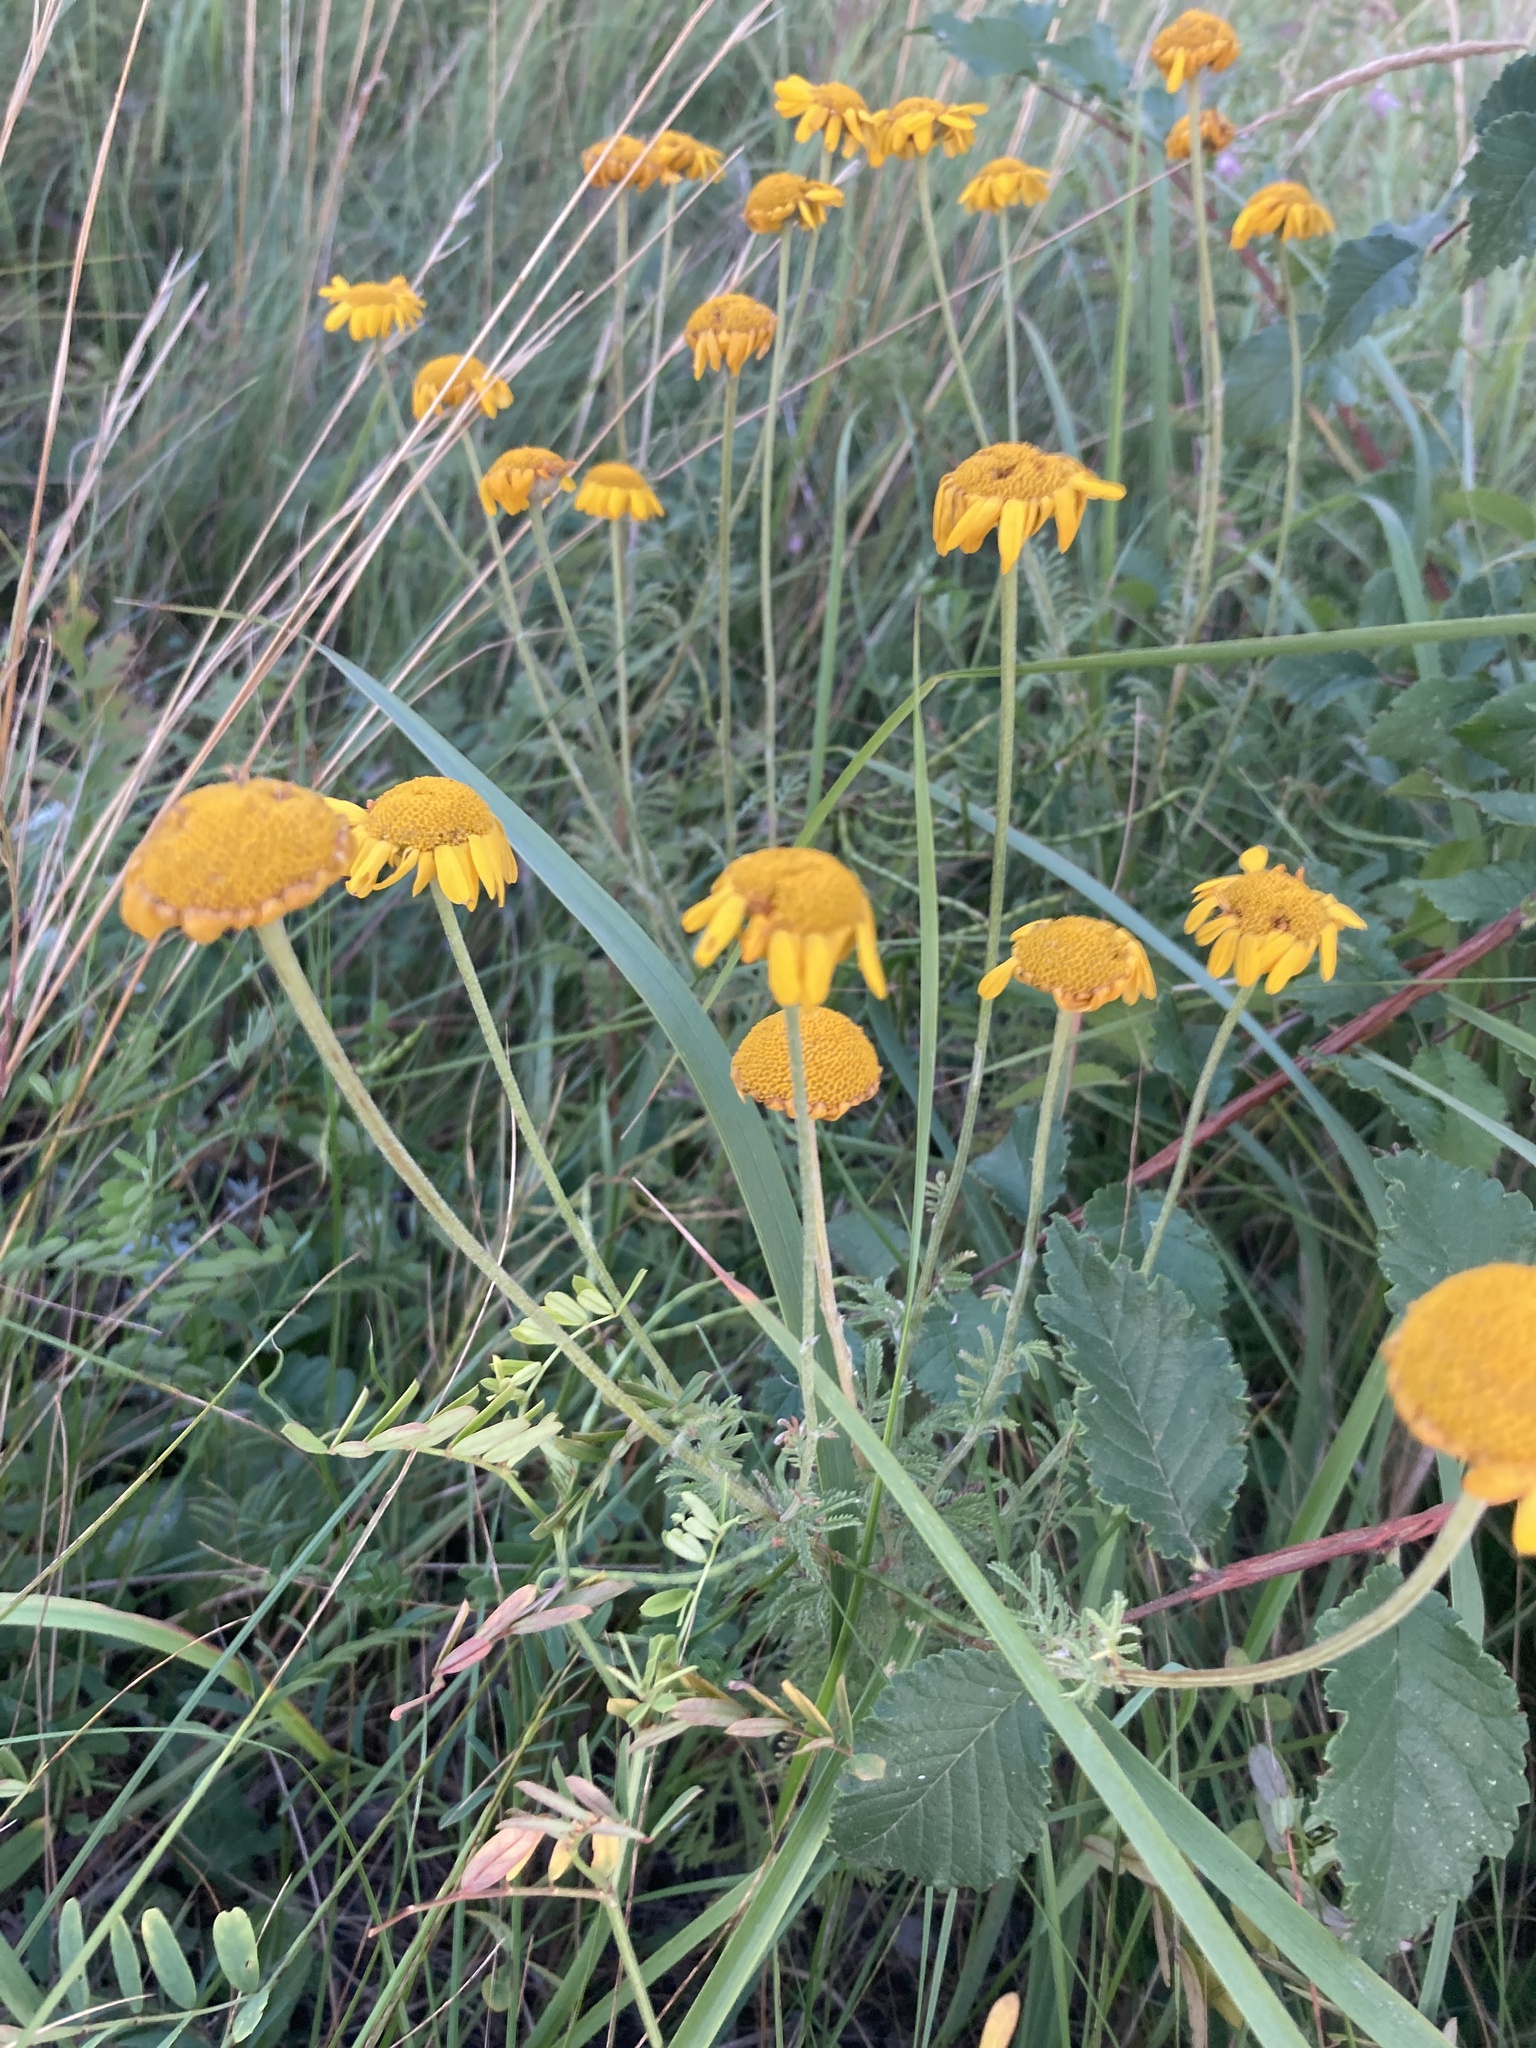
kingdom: Plantae
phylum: Tracheophyta
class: Magnoliopsida
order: Asterales
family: Asteraceae
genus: Cota
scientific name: Cota tinctoria
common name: Golden chamomile
